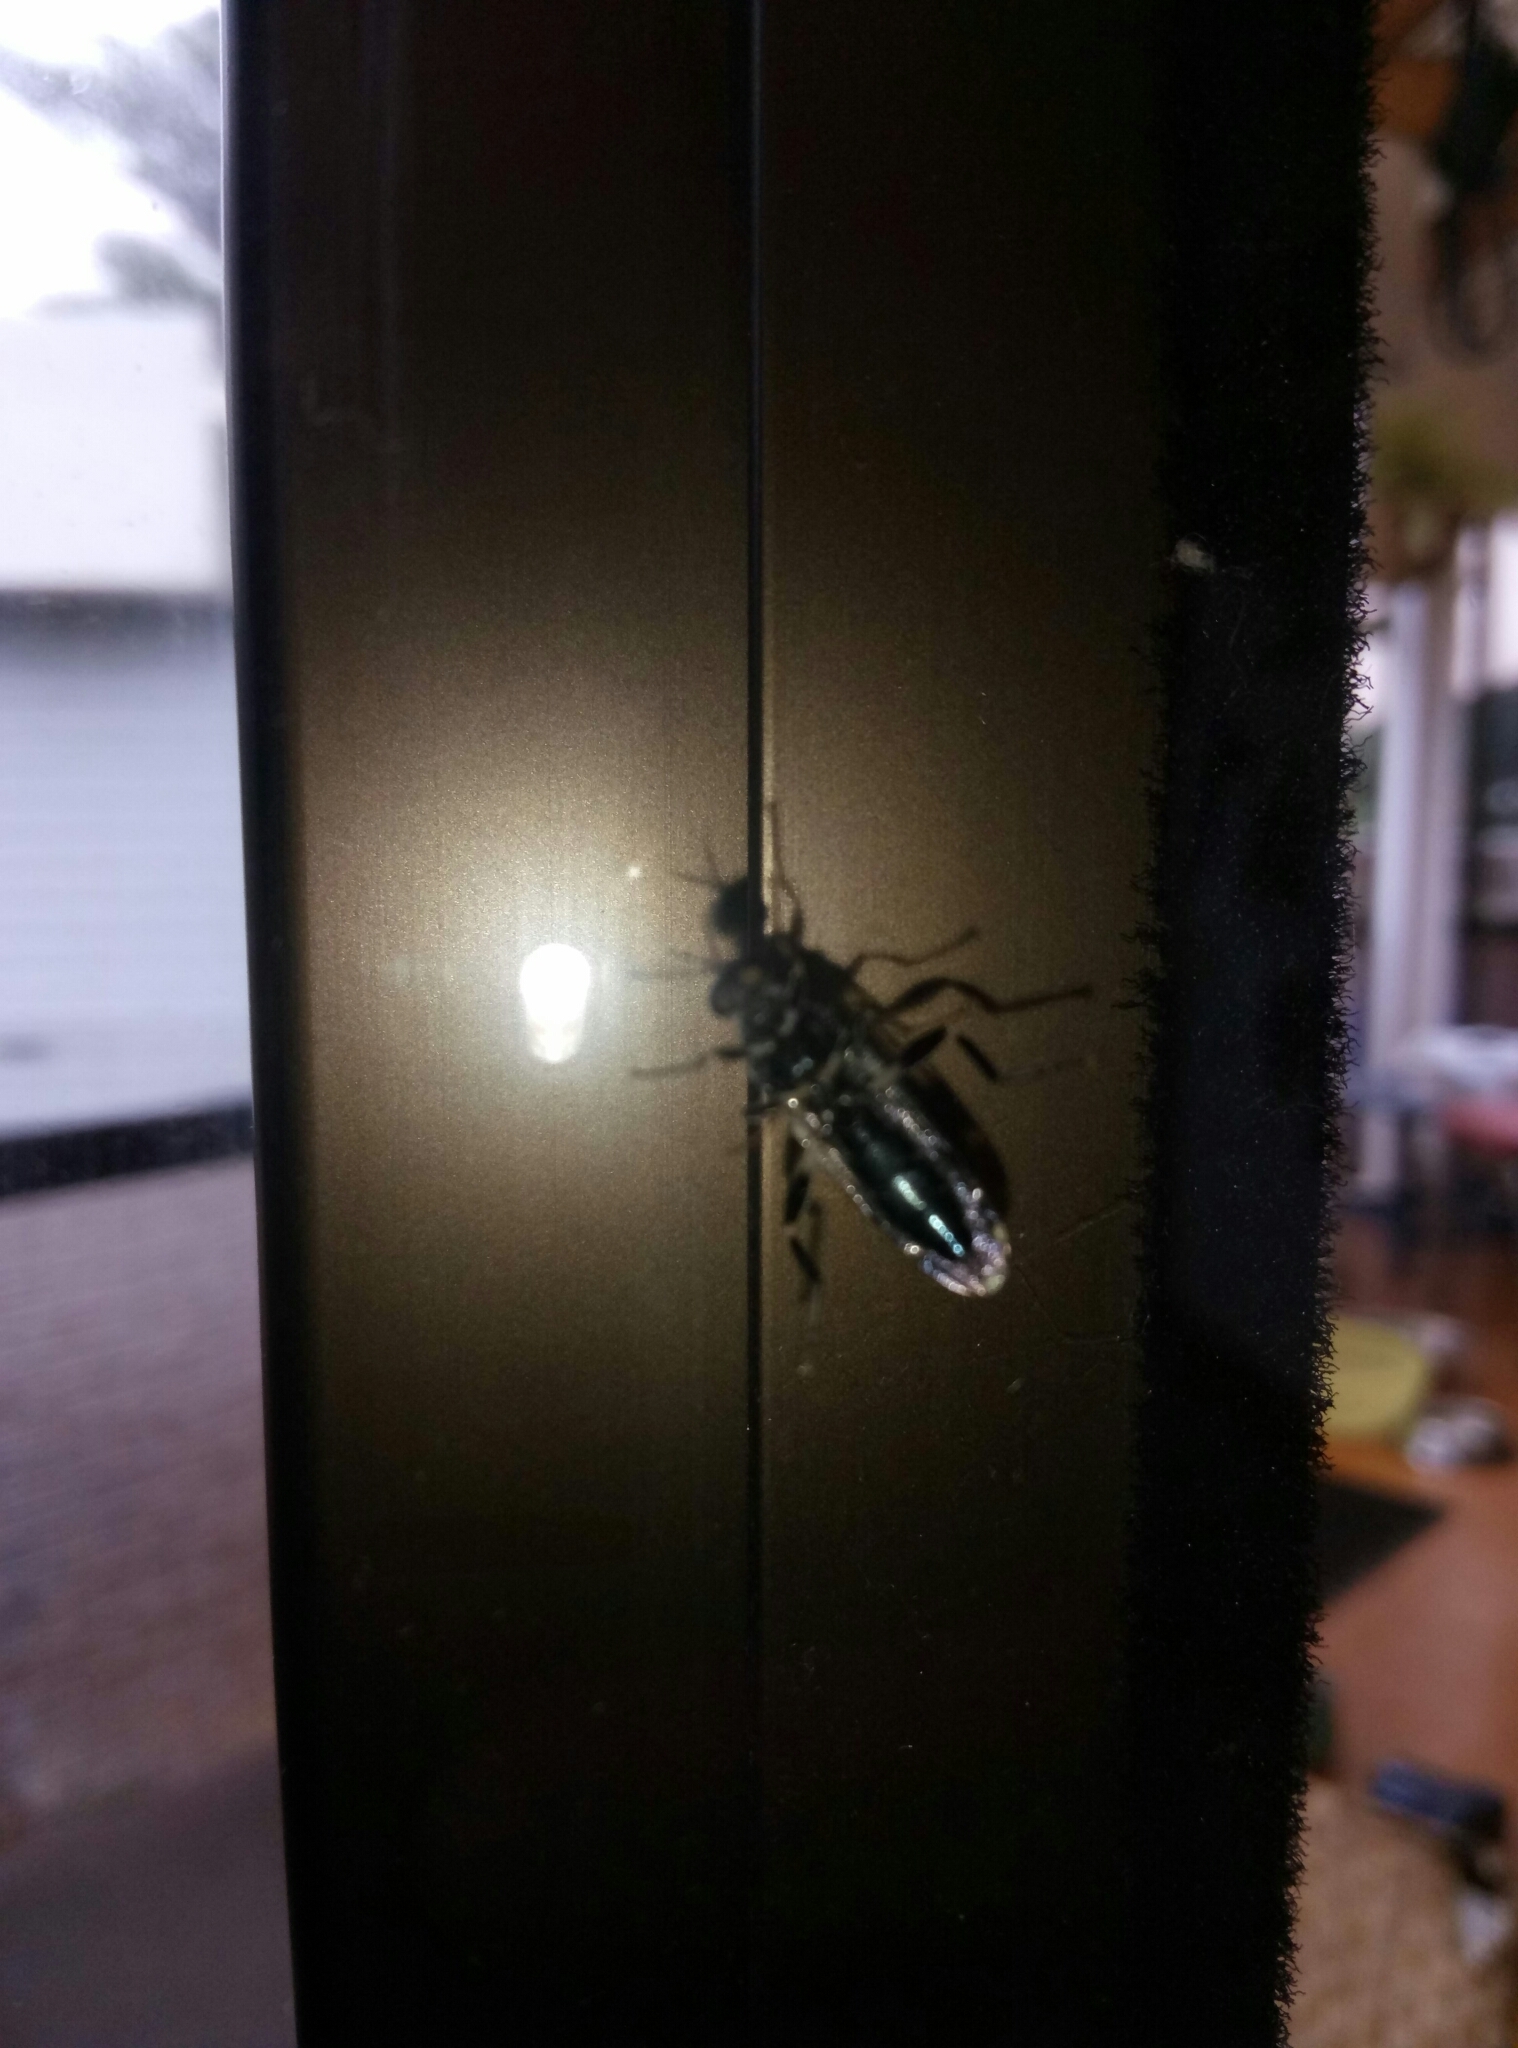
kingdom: Animalia
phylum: Arthropoda
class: Insecta
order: Diptera
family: Stratiomyidae
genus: Exaireta
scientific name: Exaireta spinigera
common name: Blue soldier fly
